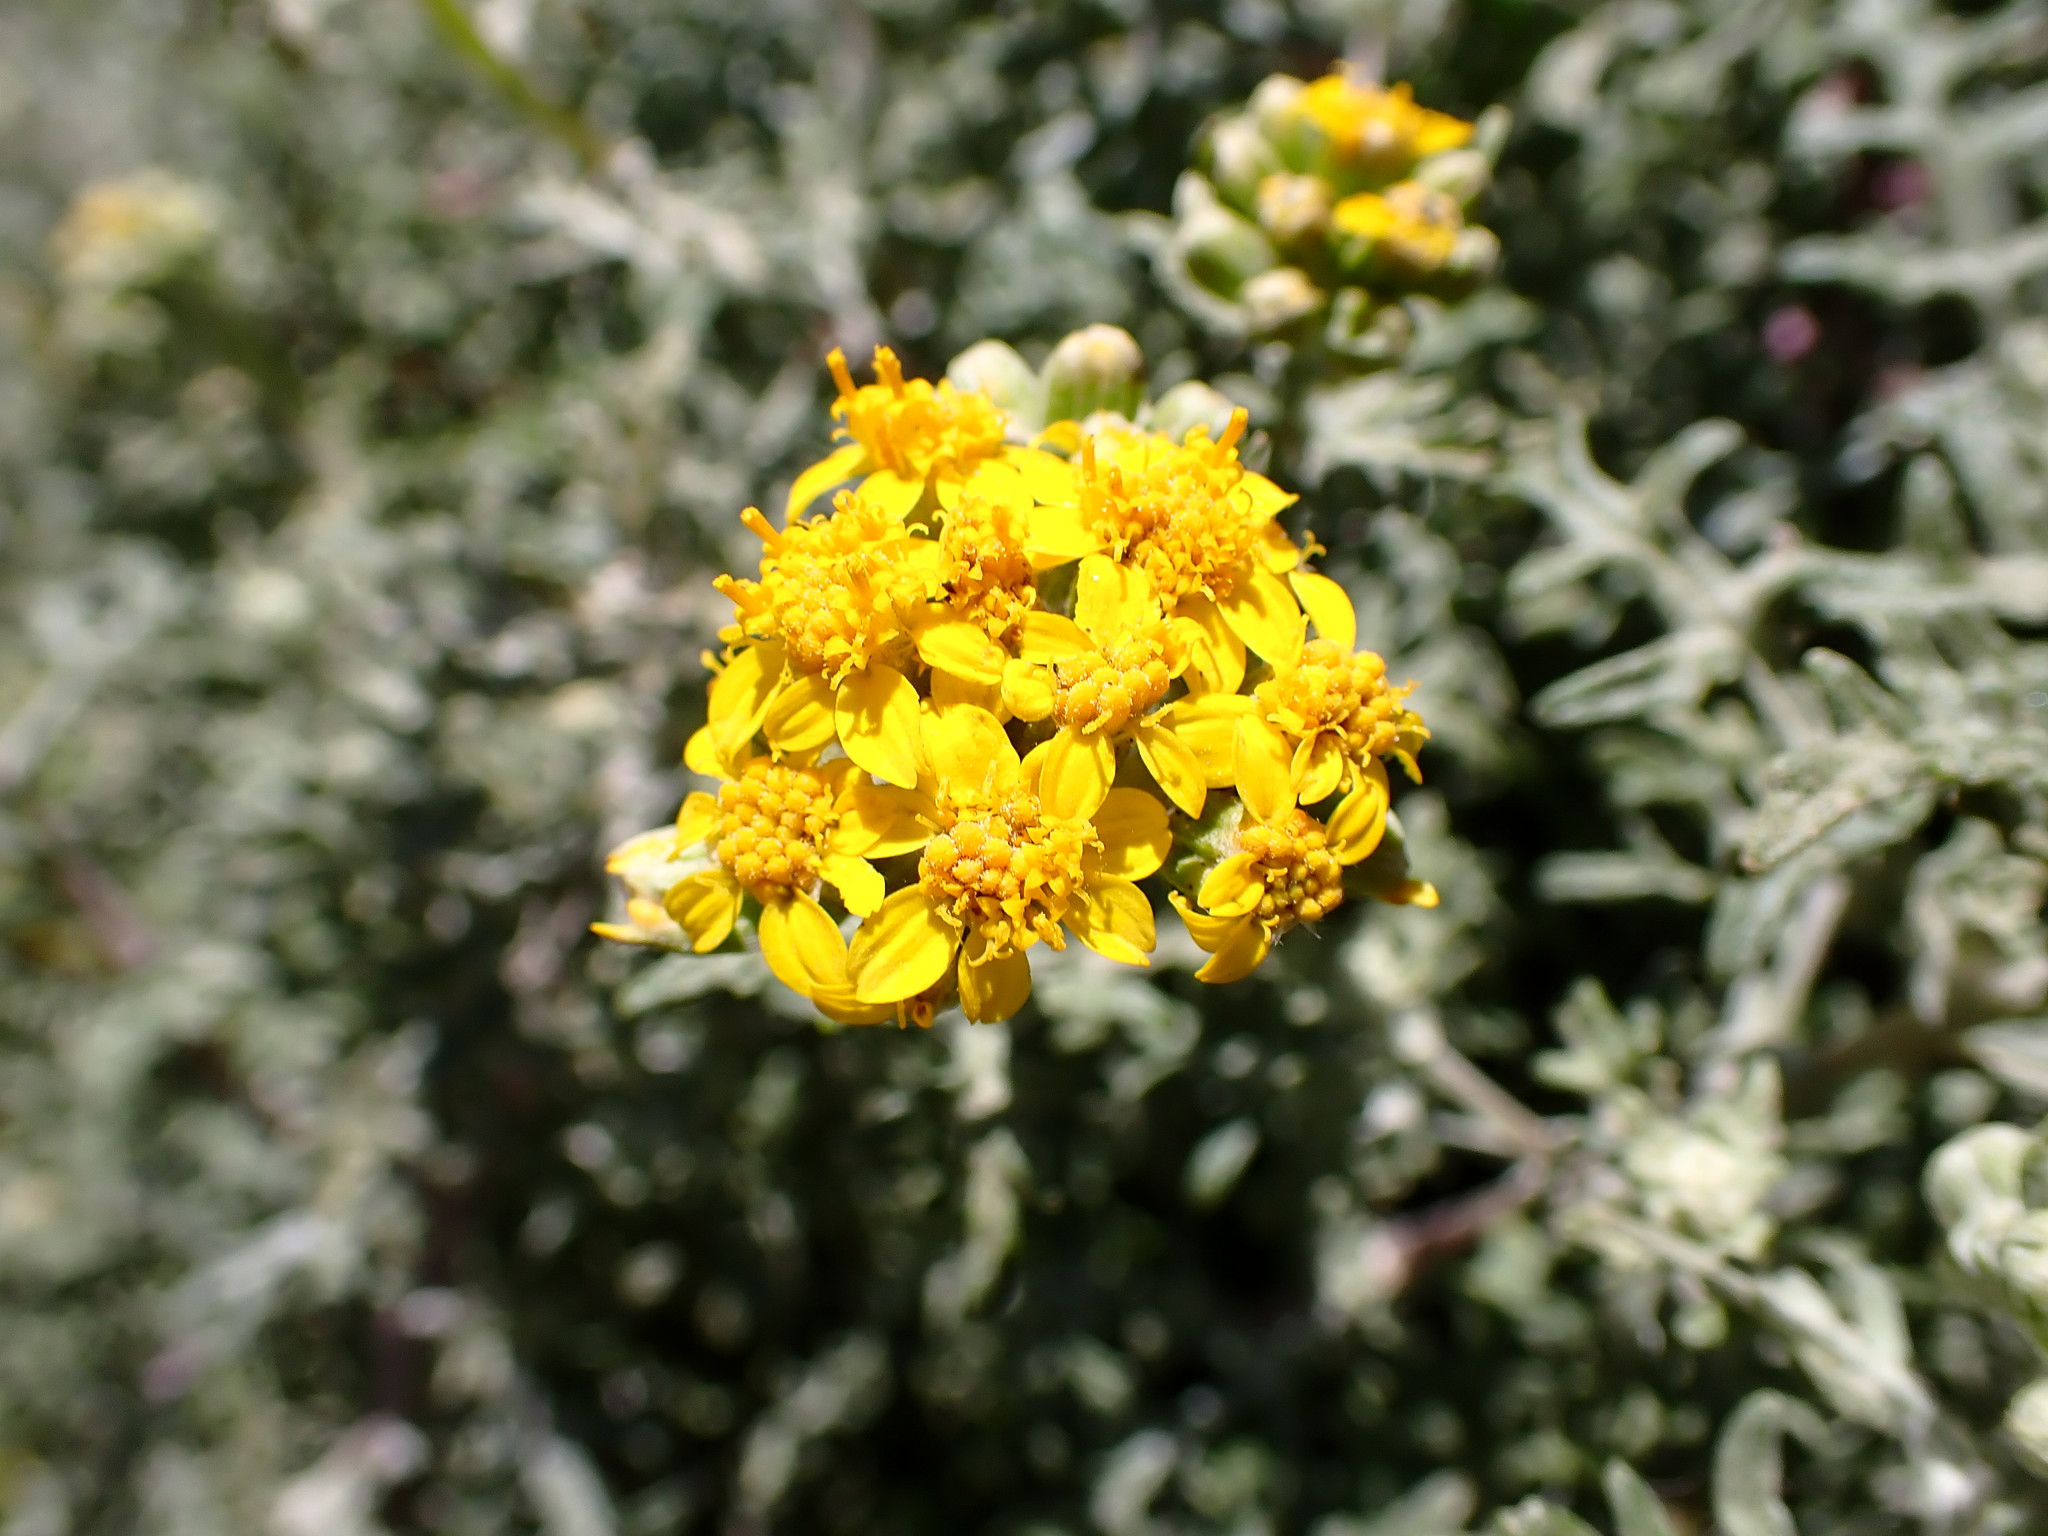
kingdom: Plantae
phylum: Tracheophyta
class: Magnoliopsida
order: Asterales
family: Asteraceae
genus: Eriophyllum
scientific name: Eriophyllum staechadifolium
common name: Lizardtail
